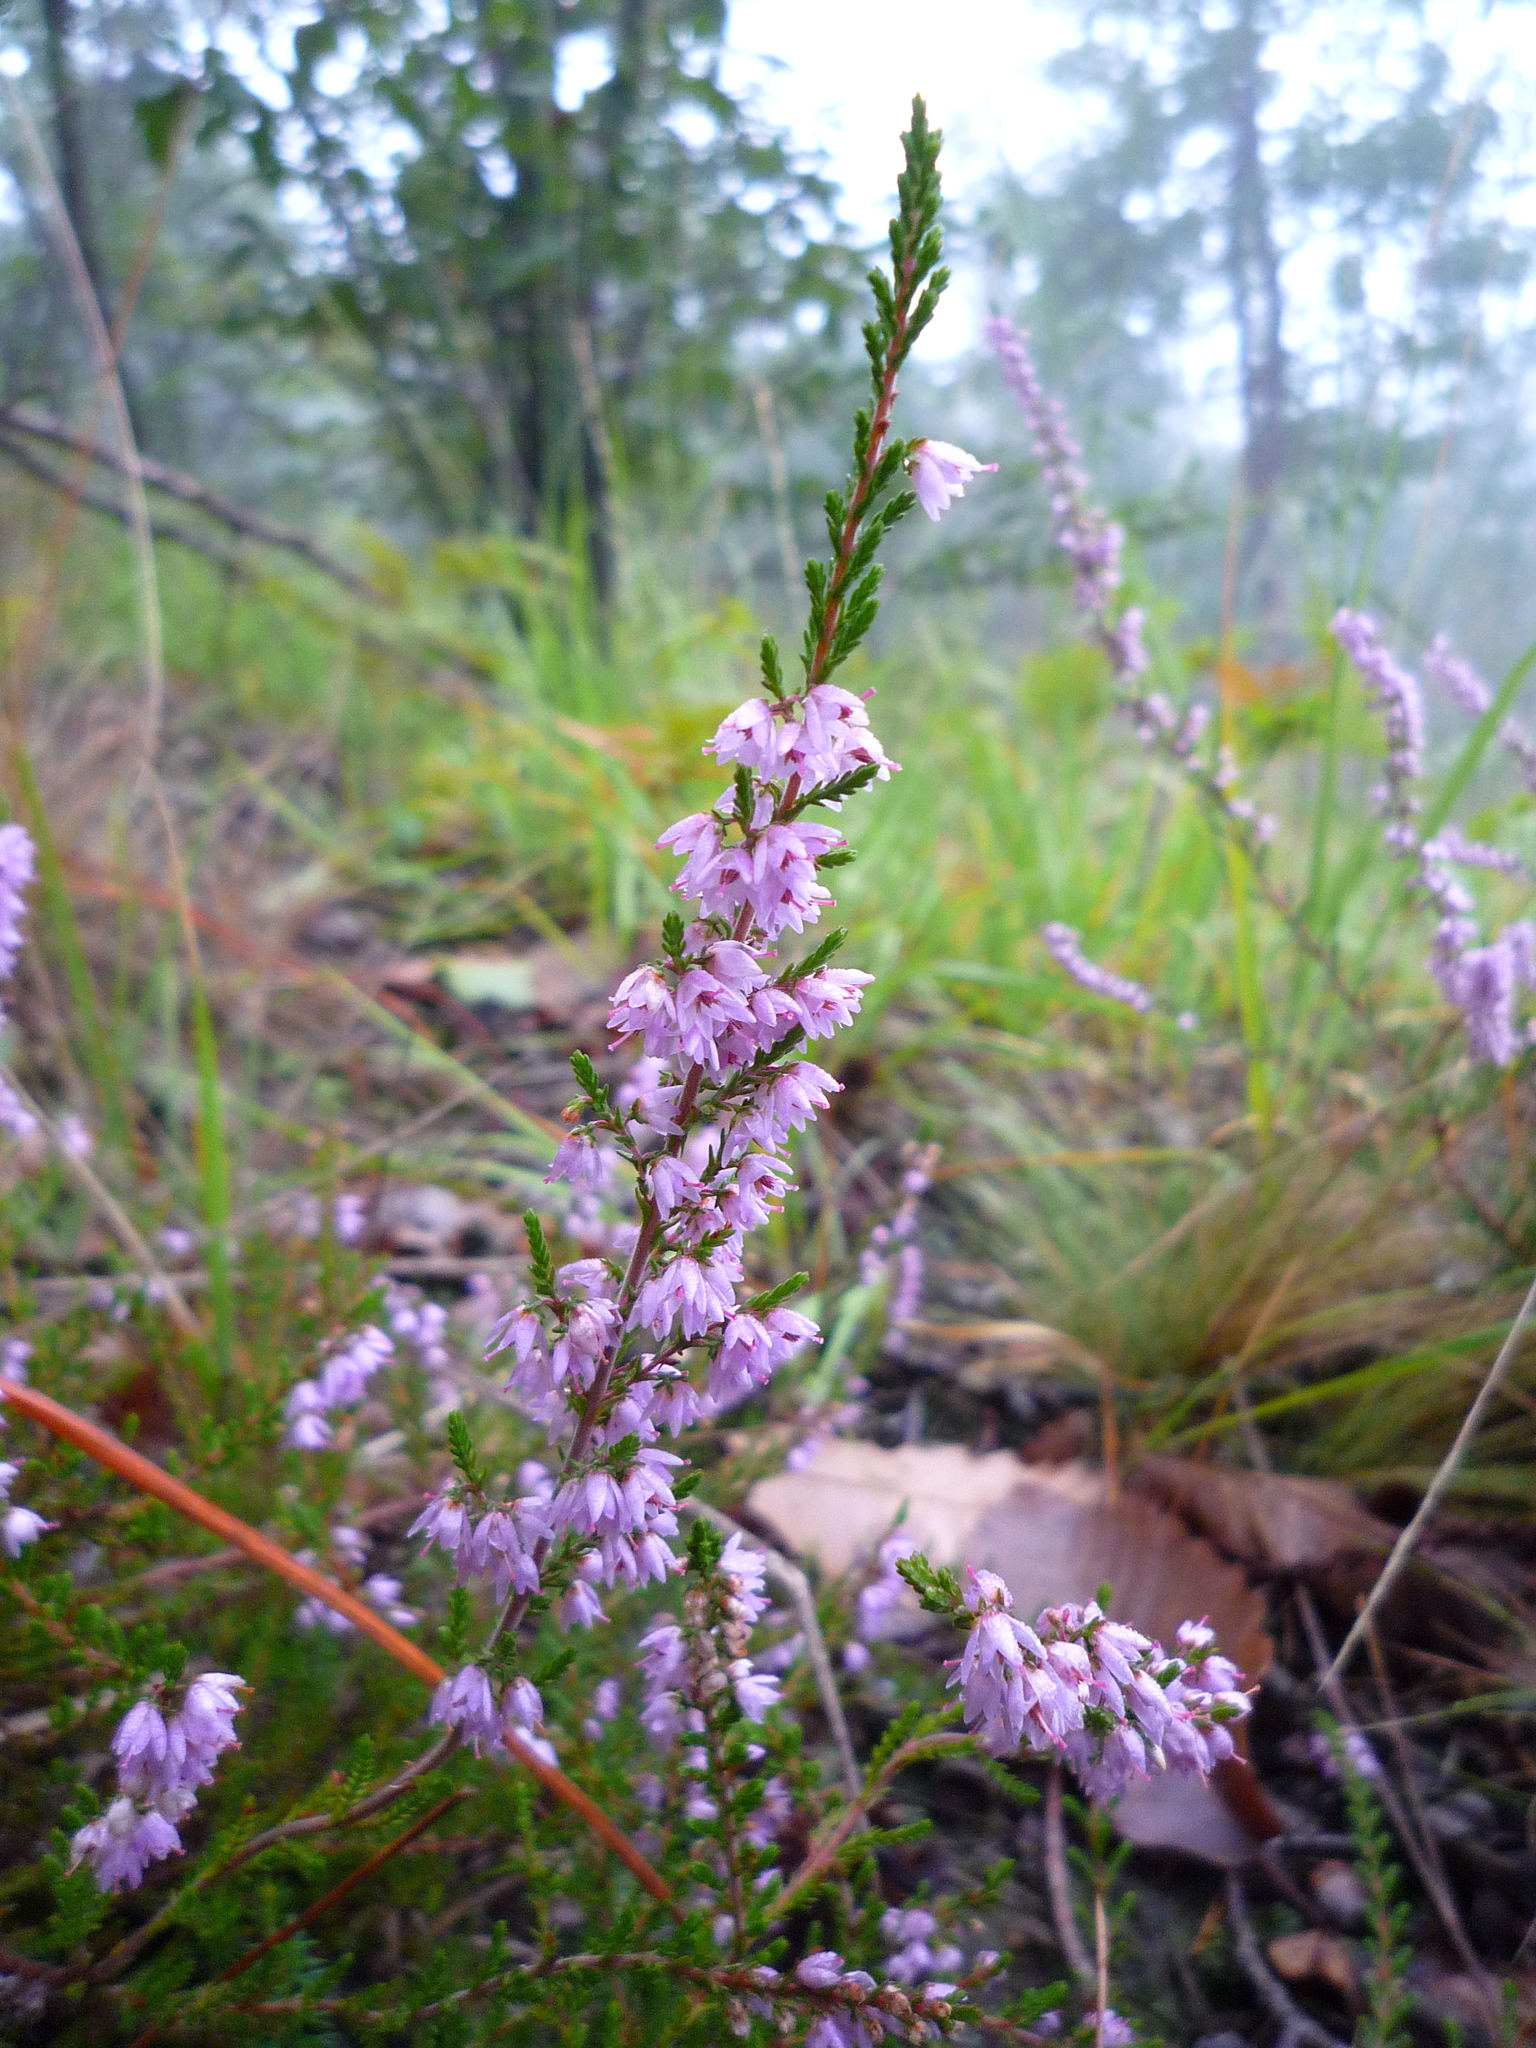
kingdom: Plantae
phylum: Tracheophyta
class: Magnoliopsida
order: Ericales
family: Ericaceae
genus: Calluna
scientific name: Calluna vulgaris
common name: Heather
